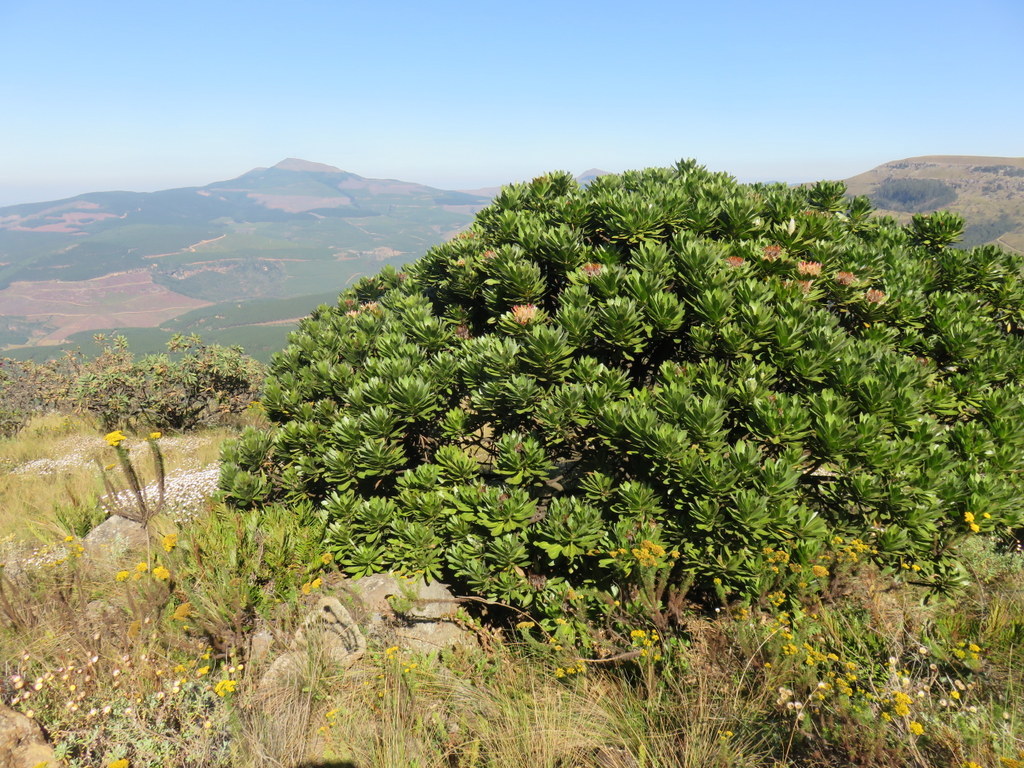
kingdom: Plantae
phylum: Tracheophyta
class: Magnoliopsida
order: Proteales
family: Proteaceae
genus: Protea
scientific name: Protea roupelliae
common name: Silver sugarbush
